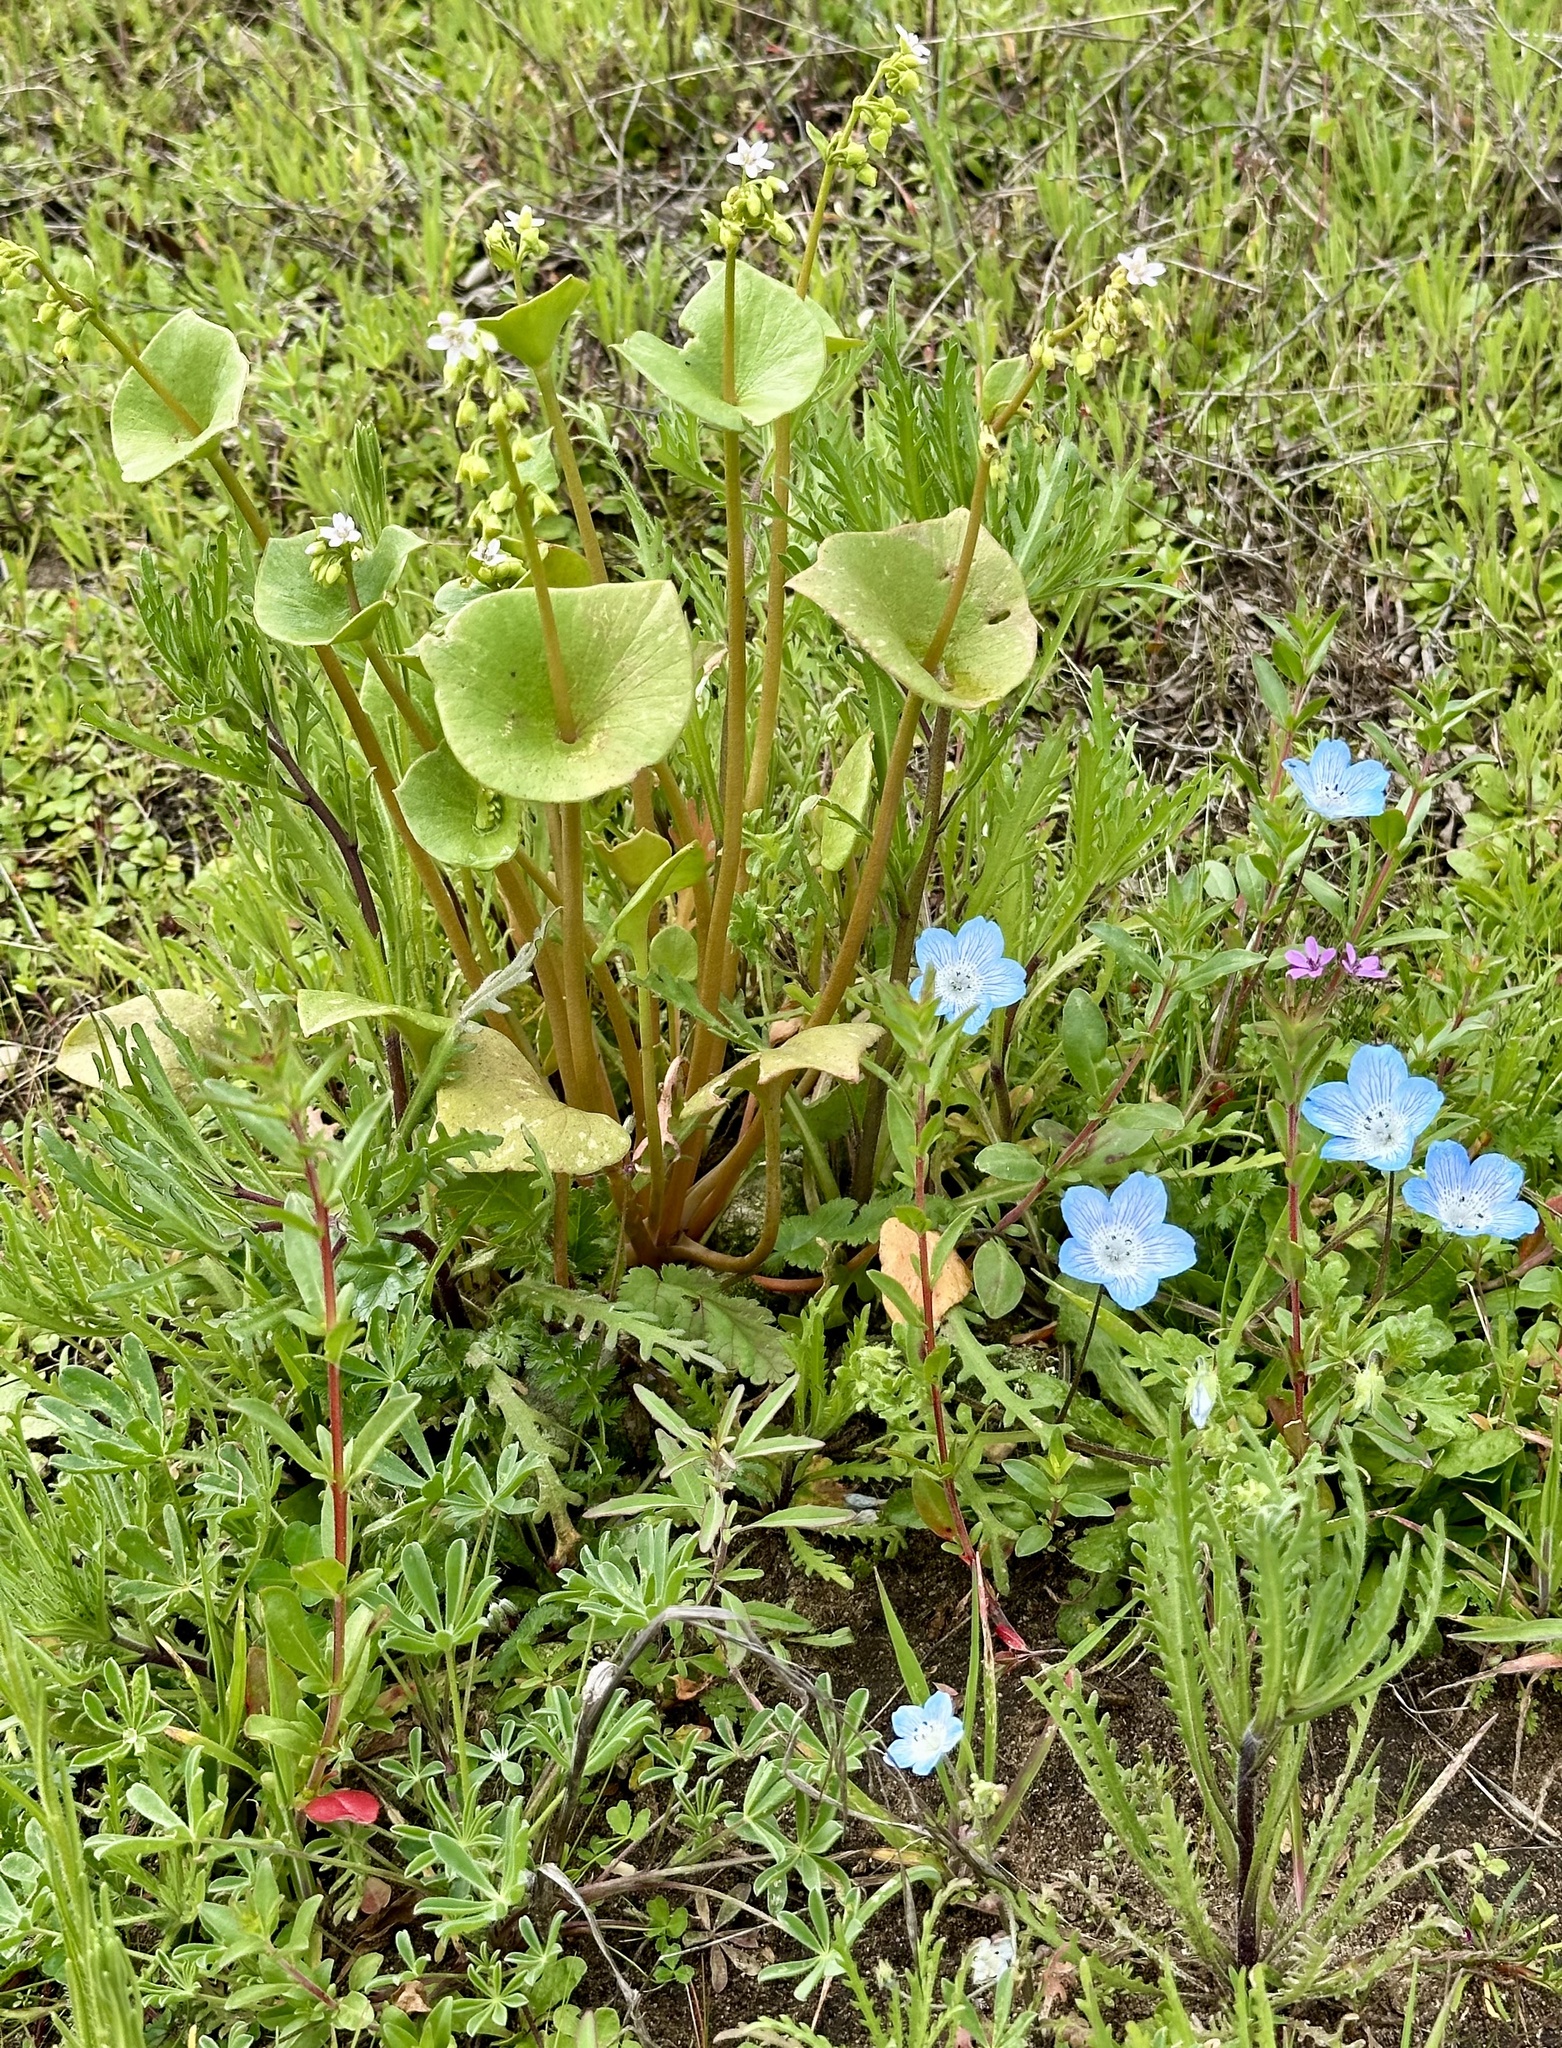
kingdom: Plantae
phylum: Tracheophyta
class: Magnoliopsida
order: Caryophyllales
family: Montiaceae
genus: Claytonia
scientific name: Claytonia perfoliata
